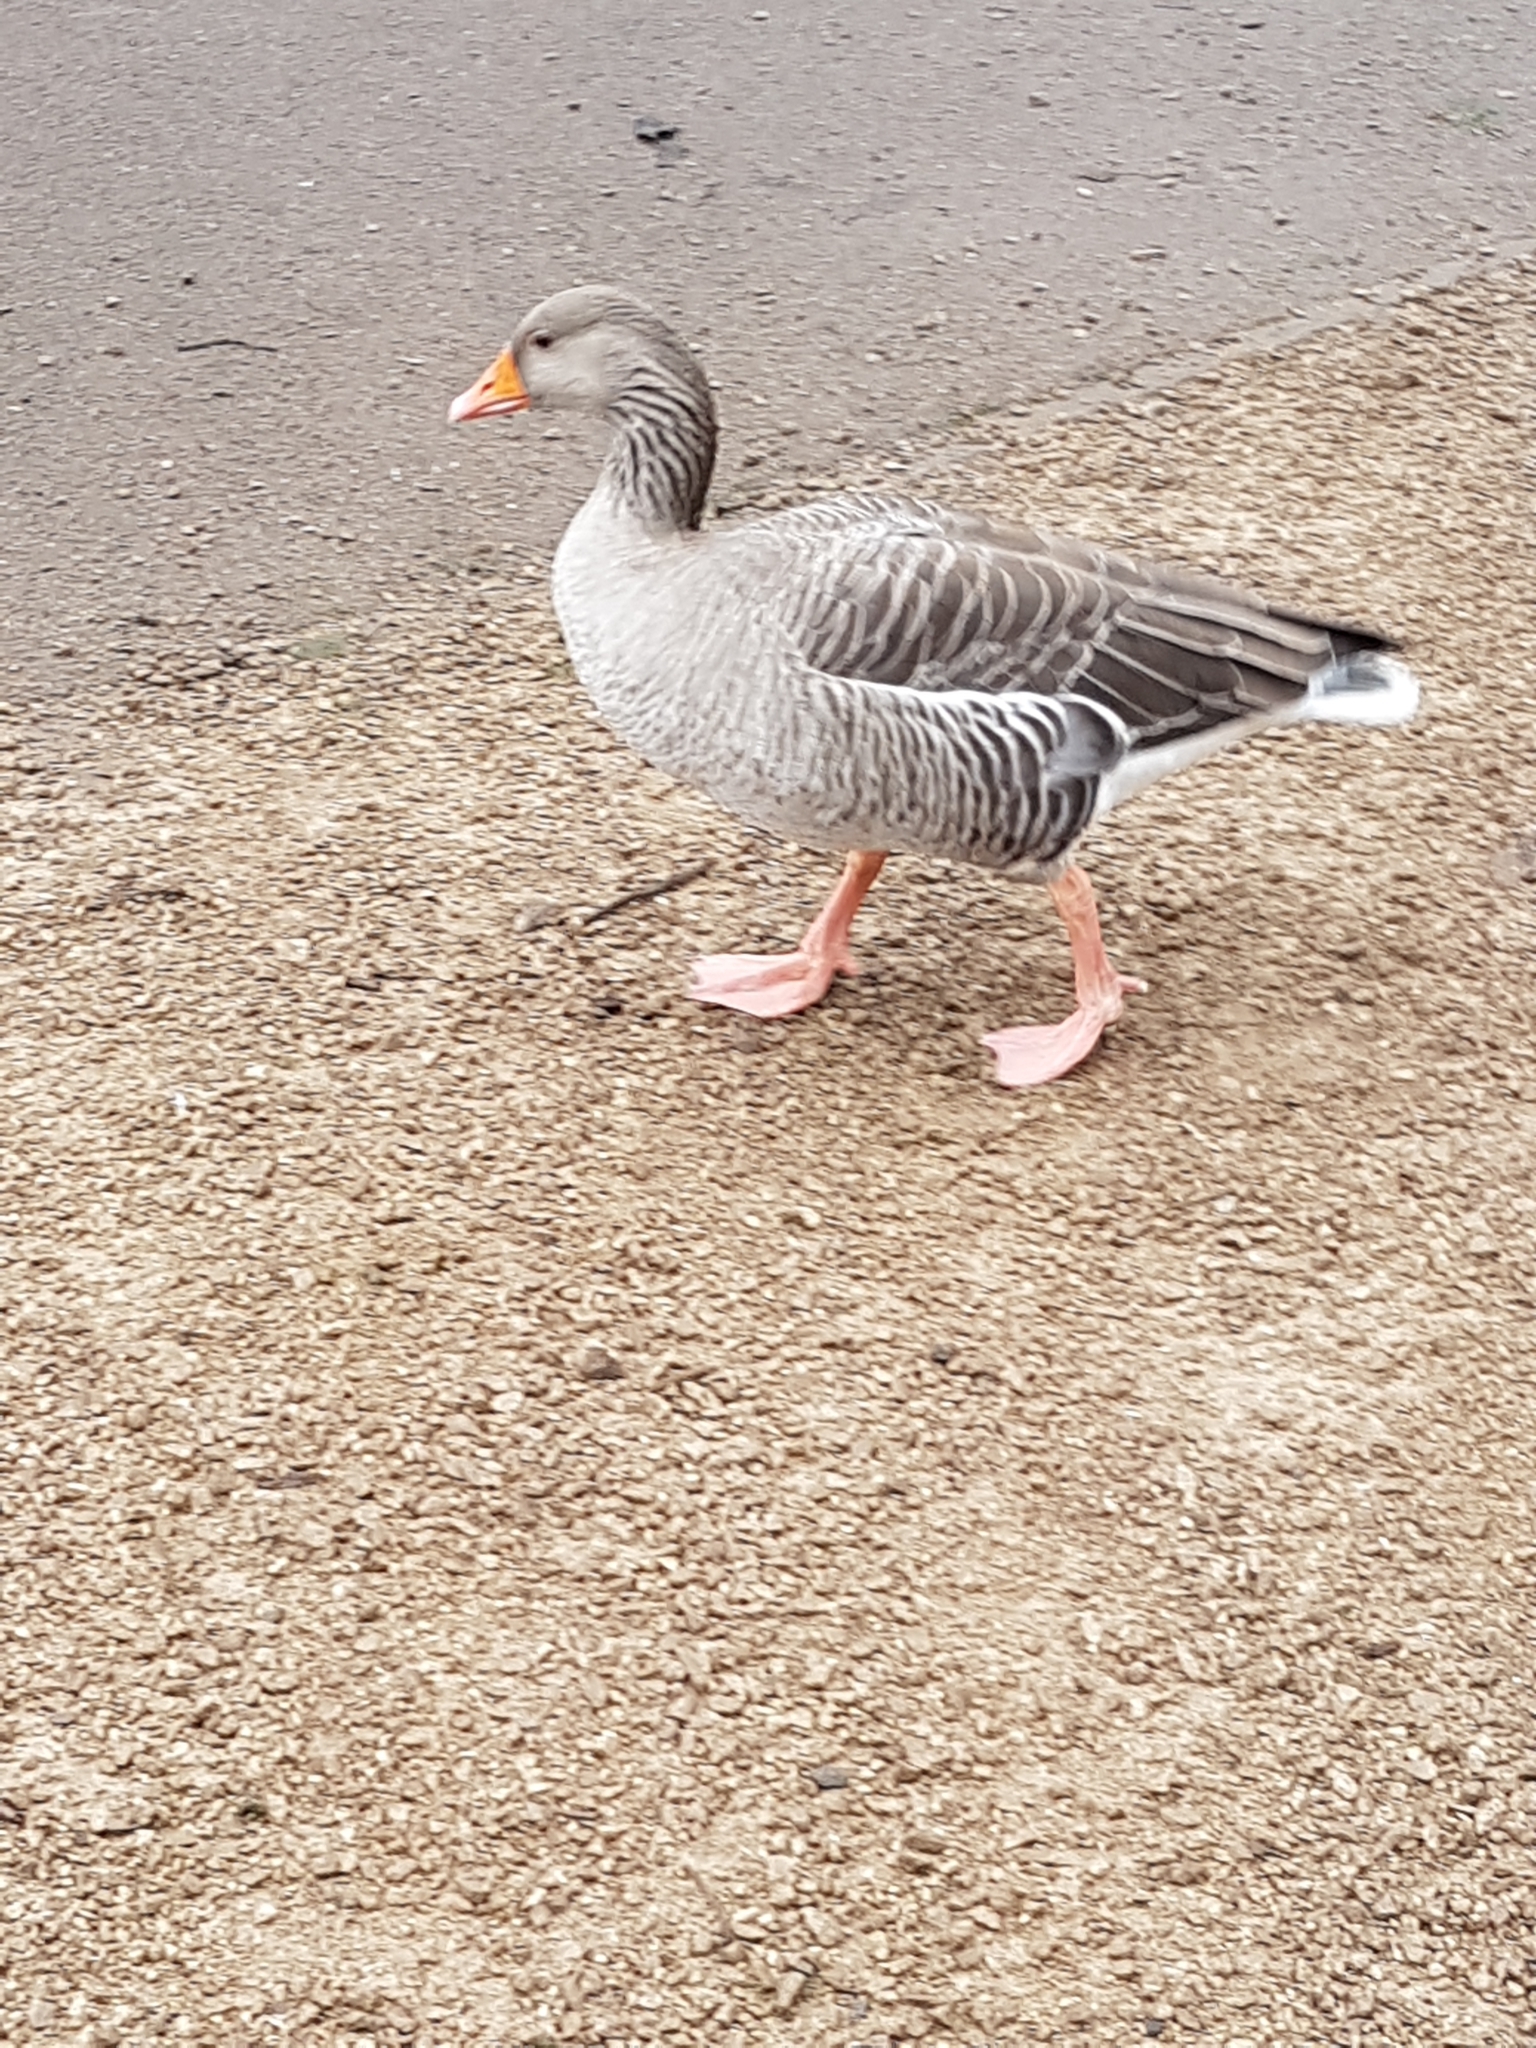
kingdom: Animalia
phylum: Chordata
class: Aves
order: Anseriformes
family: Anatidae
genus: Anser
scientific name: Anser anser
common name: Greylag goose
